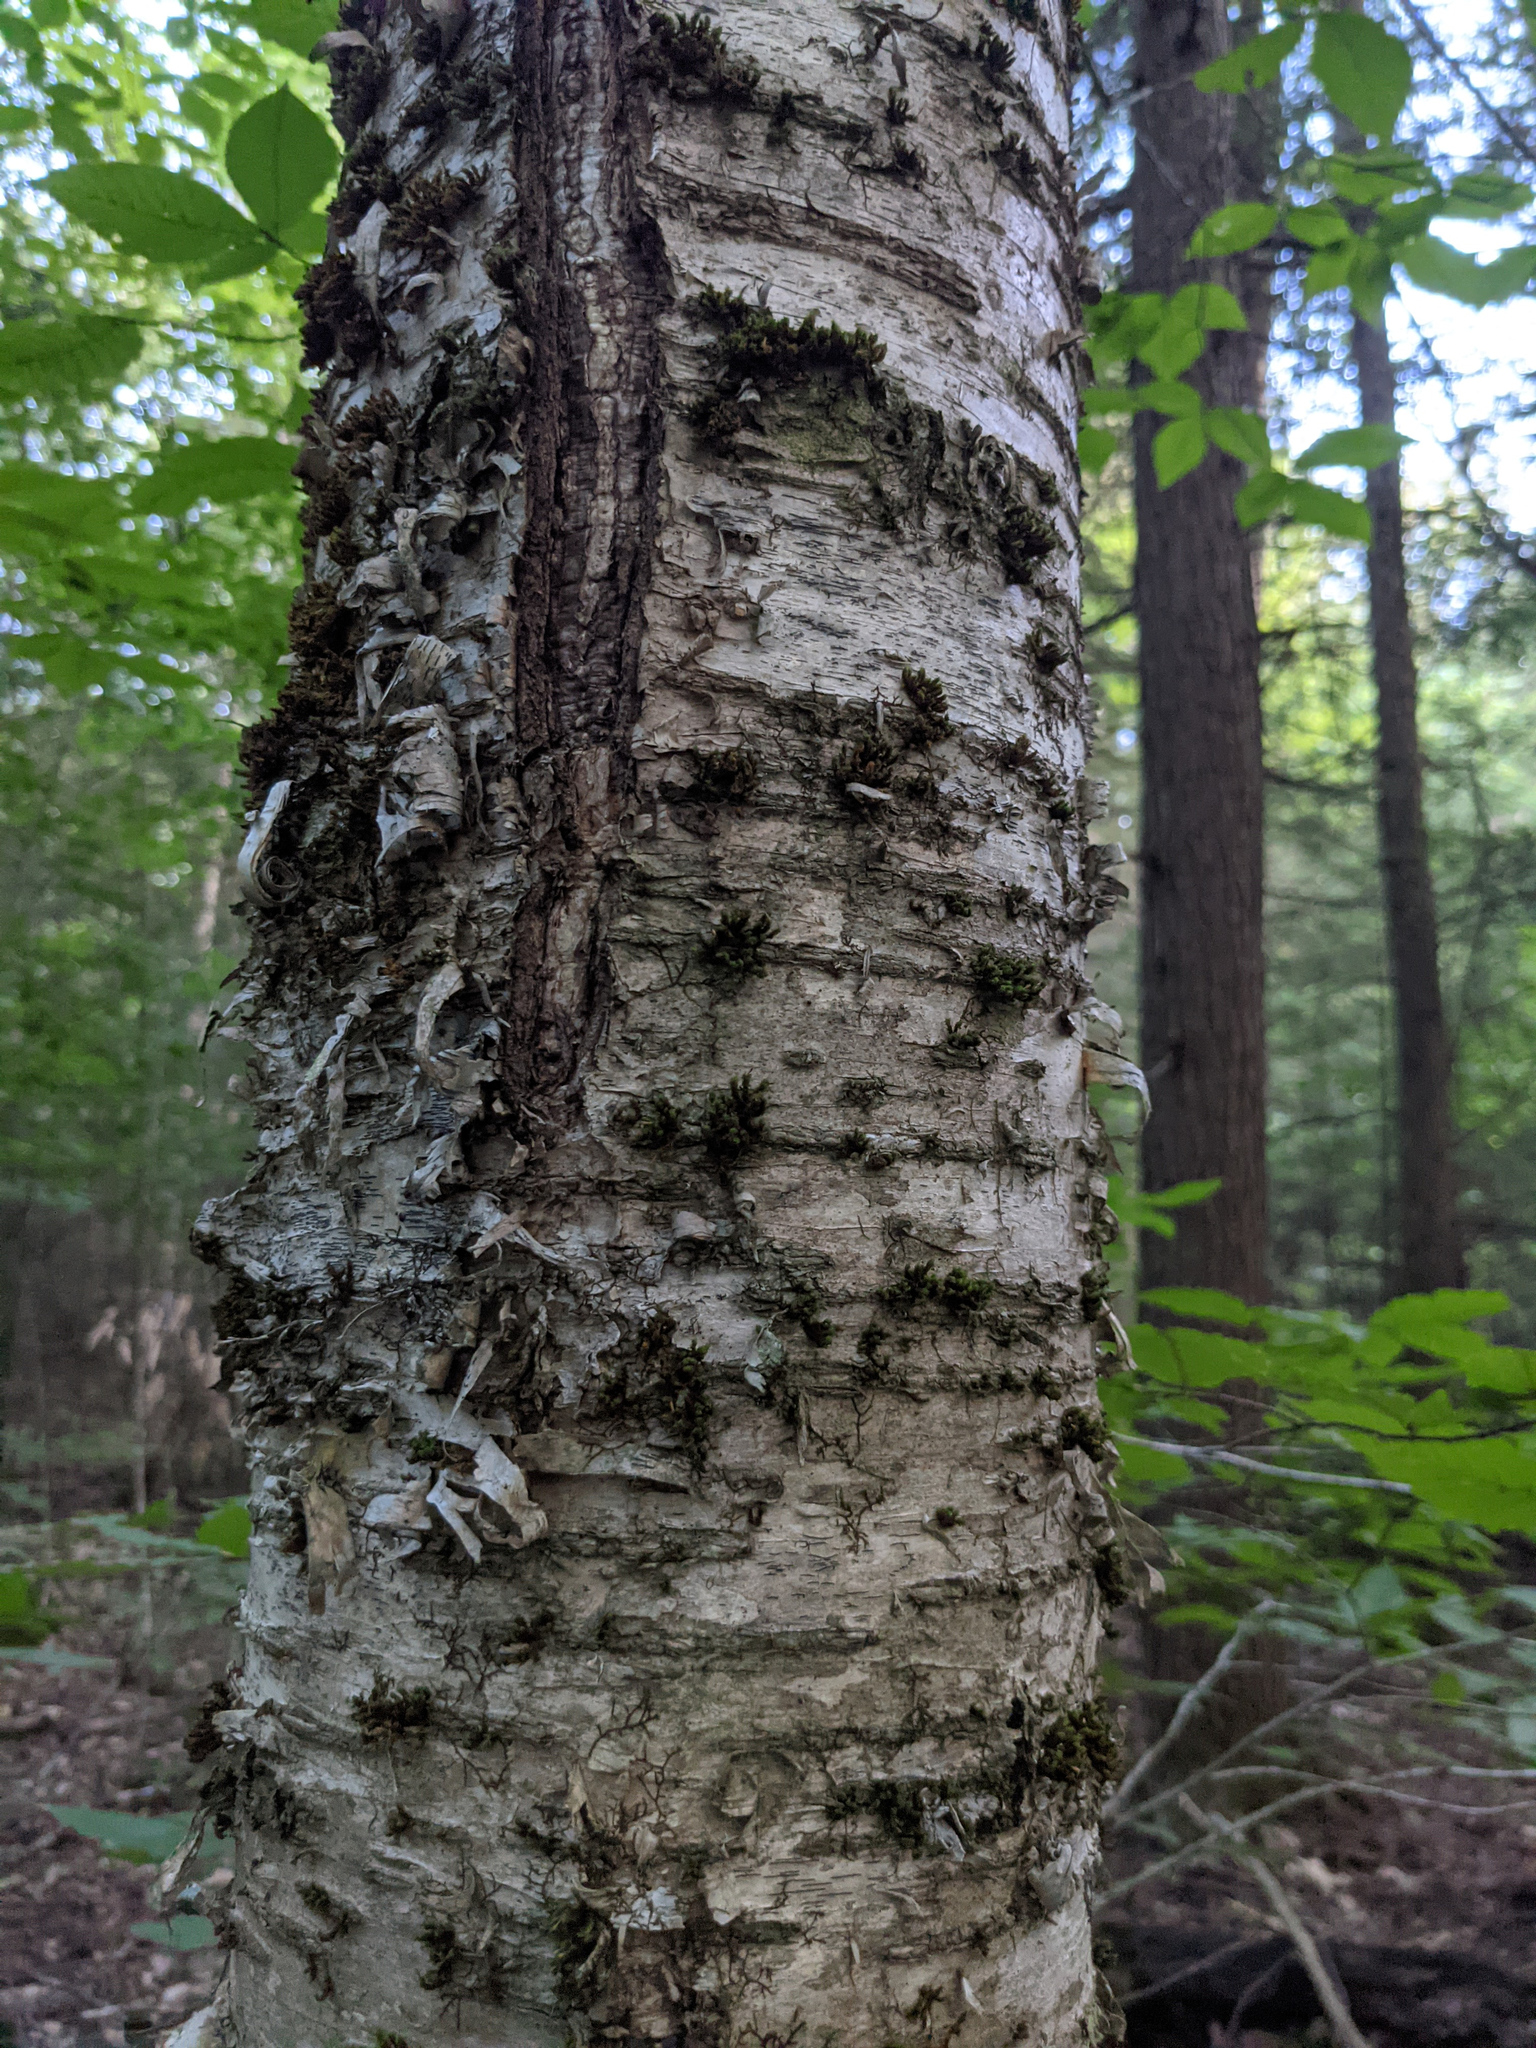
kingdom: Plantae
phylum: Bryophyta
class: Bryopsida
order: Orthotrichales
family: Orthotrichaceae
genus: Ulota
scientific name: Ulota crispa
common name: Crisped pincushion moss
